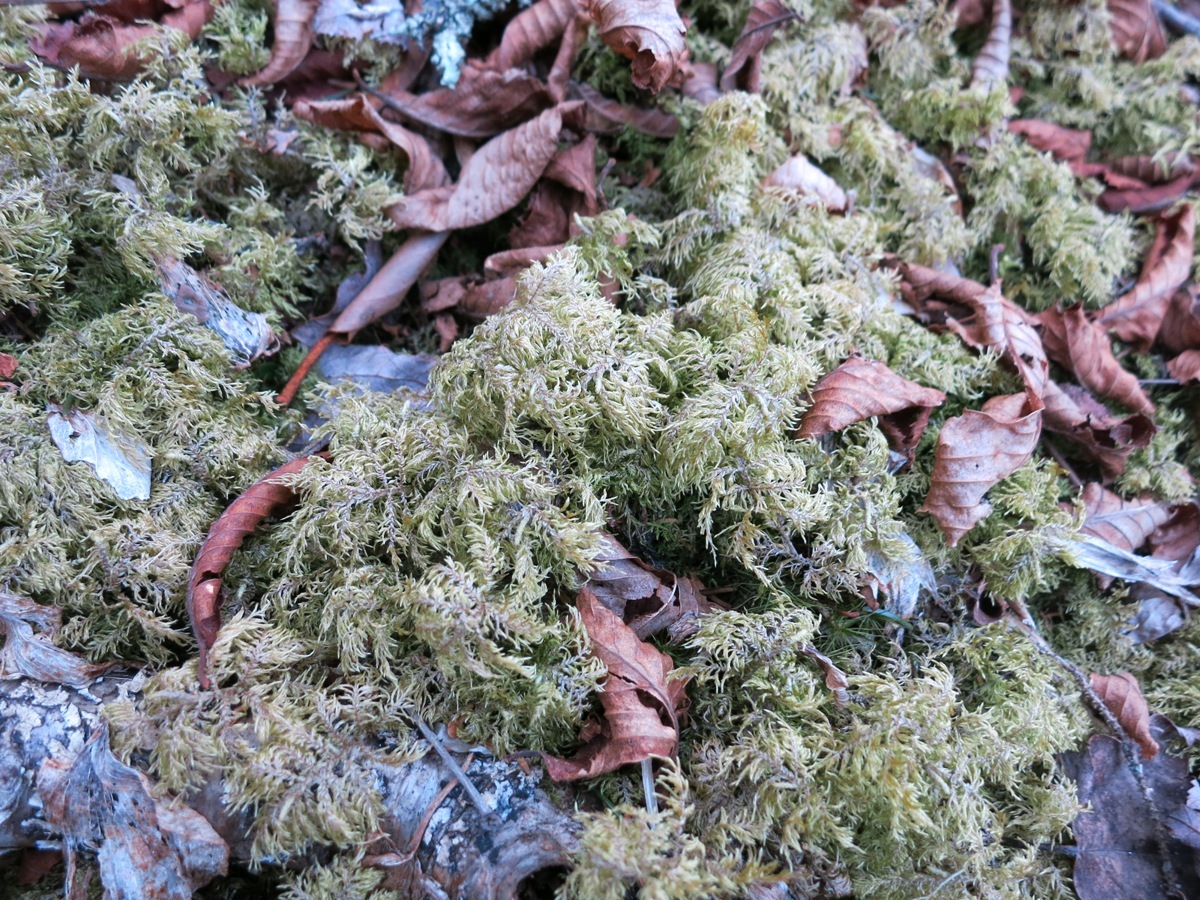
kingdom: Plantae
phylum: Bryophyta
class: Bryopsida
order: Hypnales
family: Hylocomiaceae
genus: Hylocomium
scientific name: Hylocomium splendens
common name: Stairstep moss
